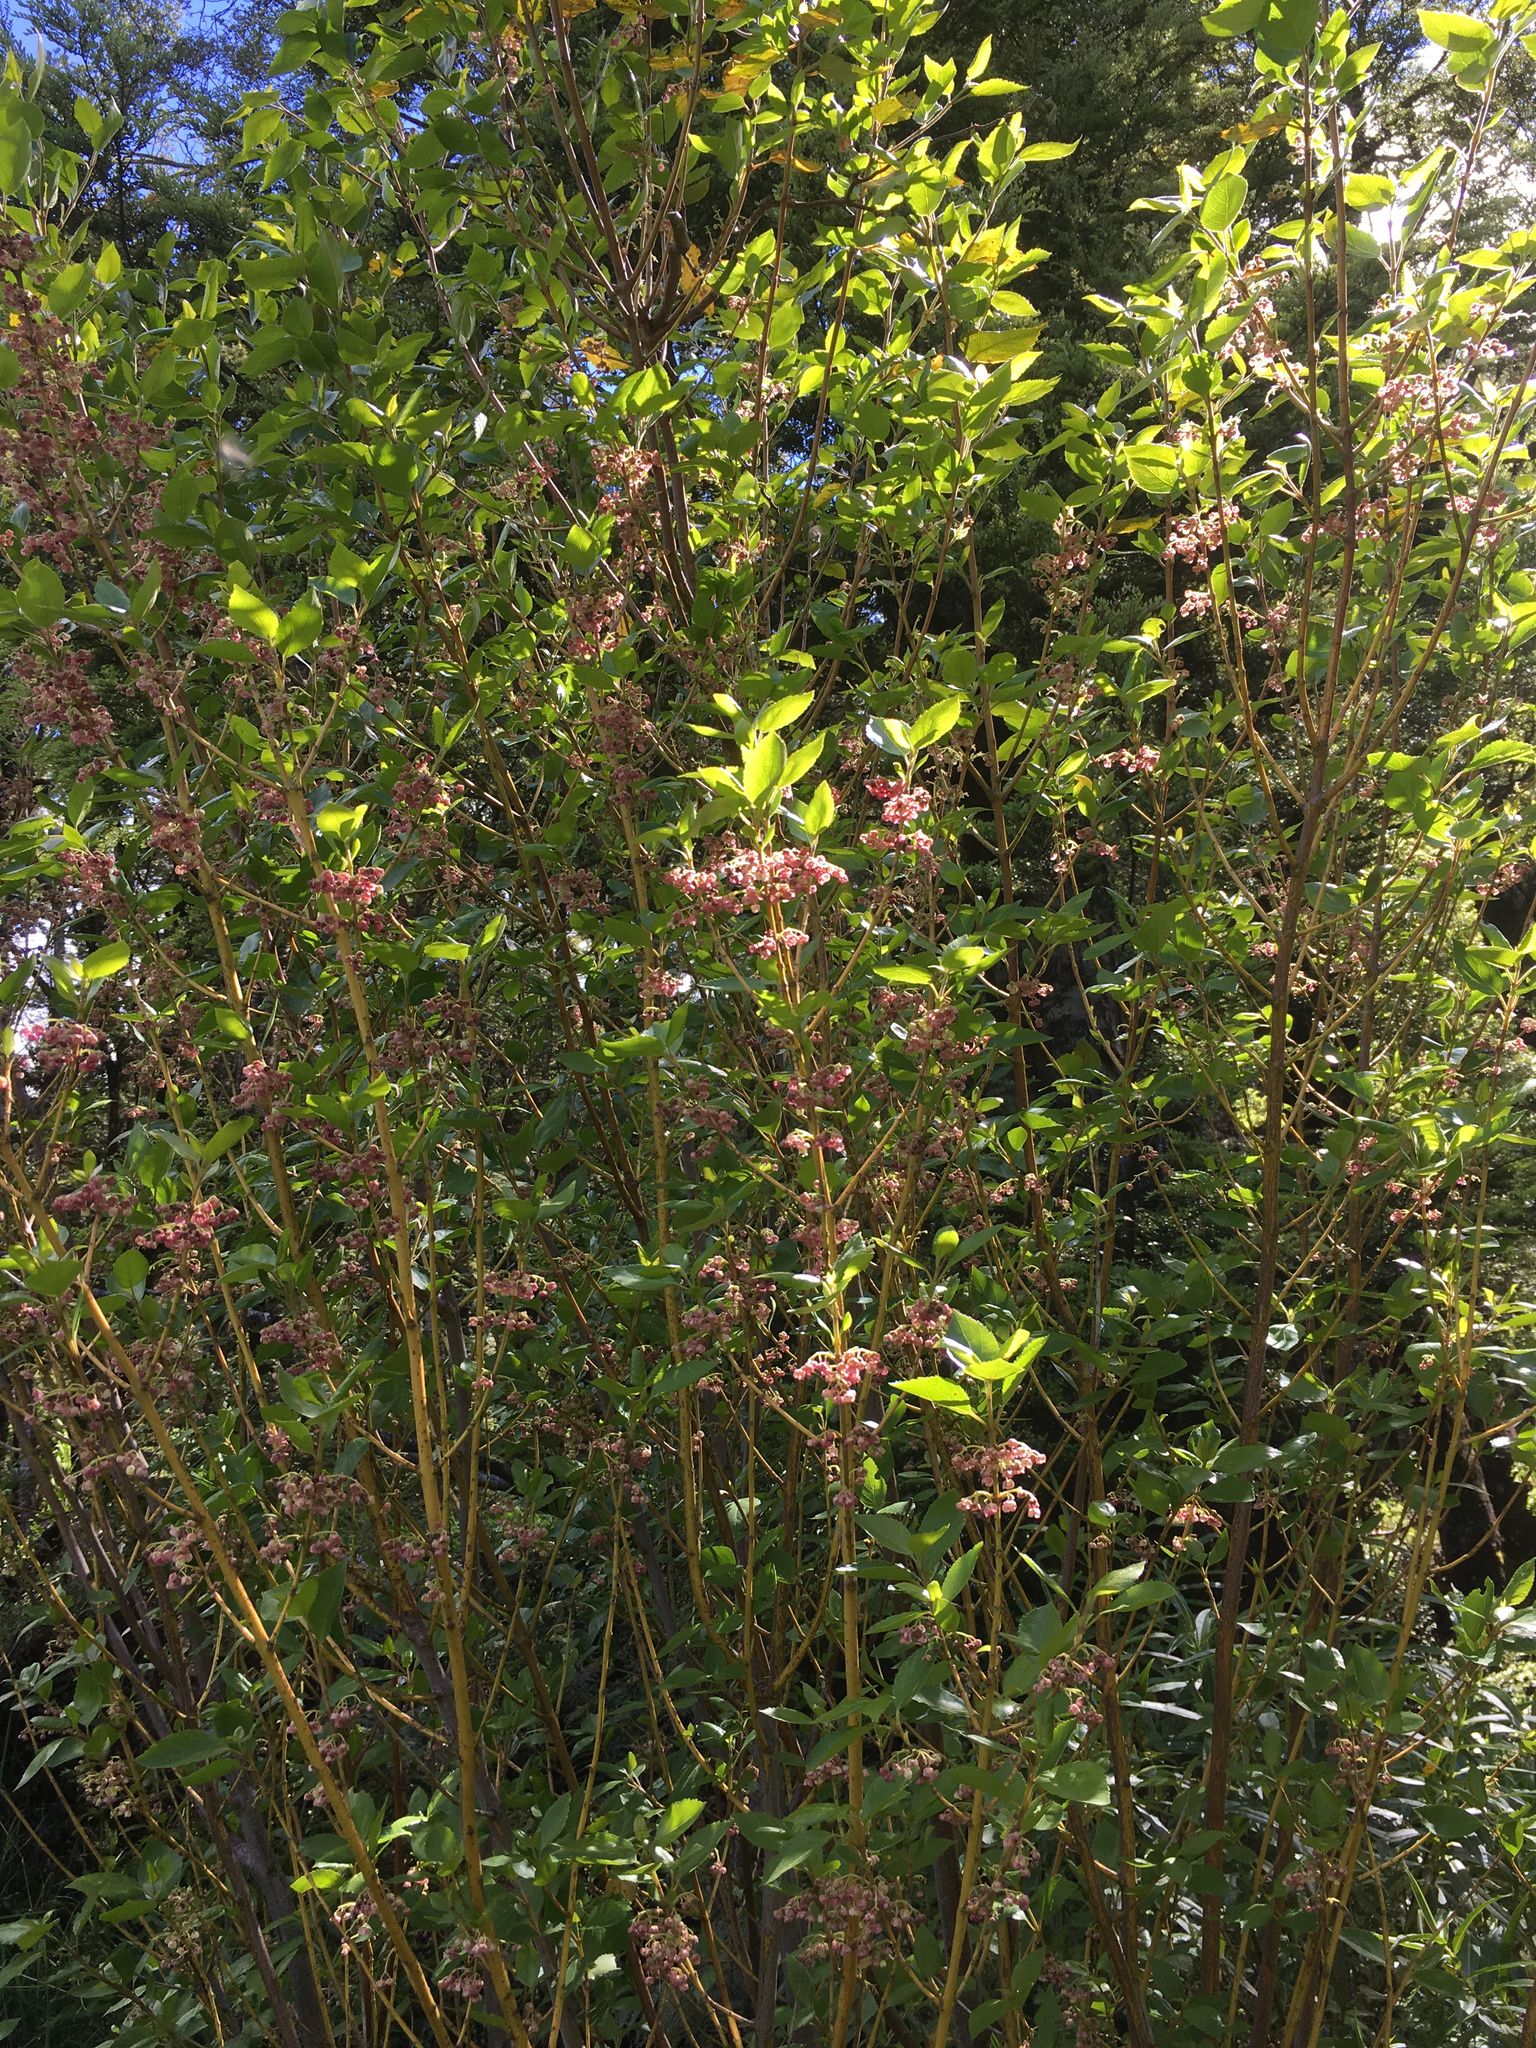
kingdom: Plantae
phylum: Tracheophyta
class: Magnoliopsida
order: Oxalidales
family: Elaeocarpaceae
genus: Aristotelia
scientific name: Aristotelia
